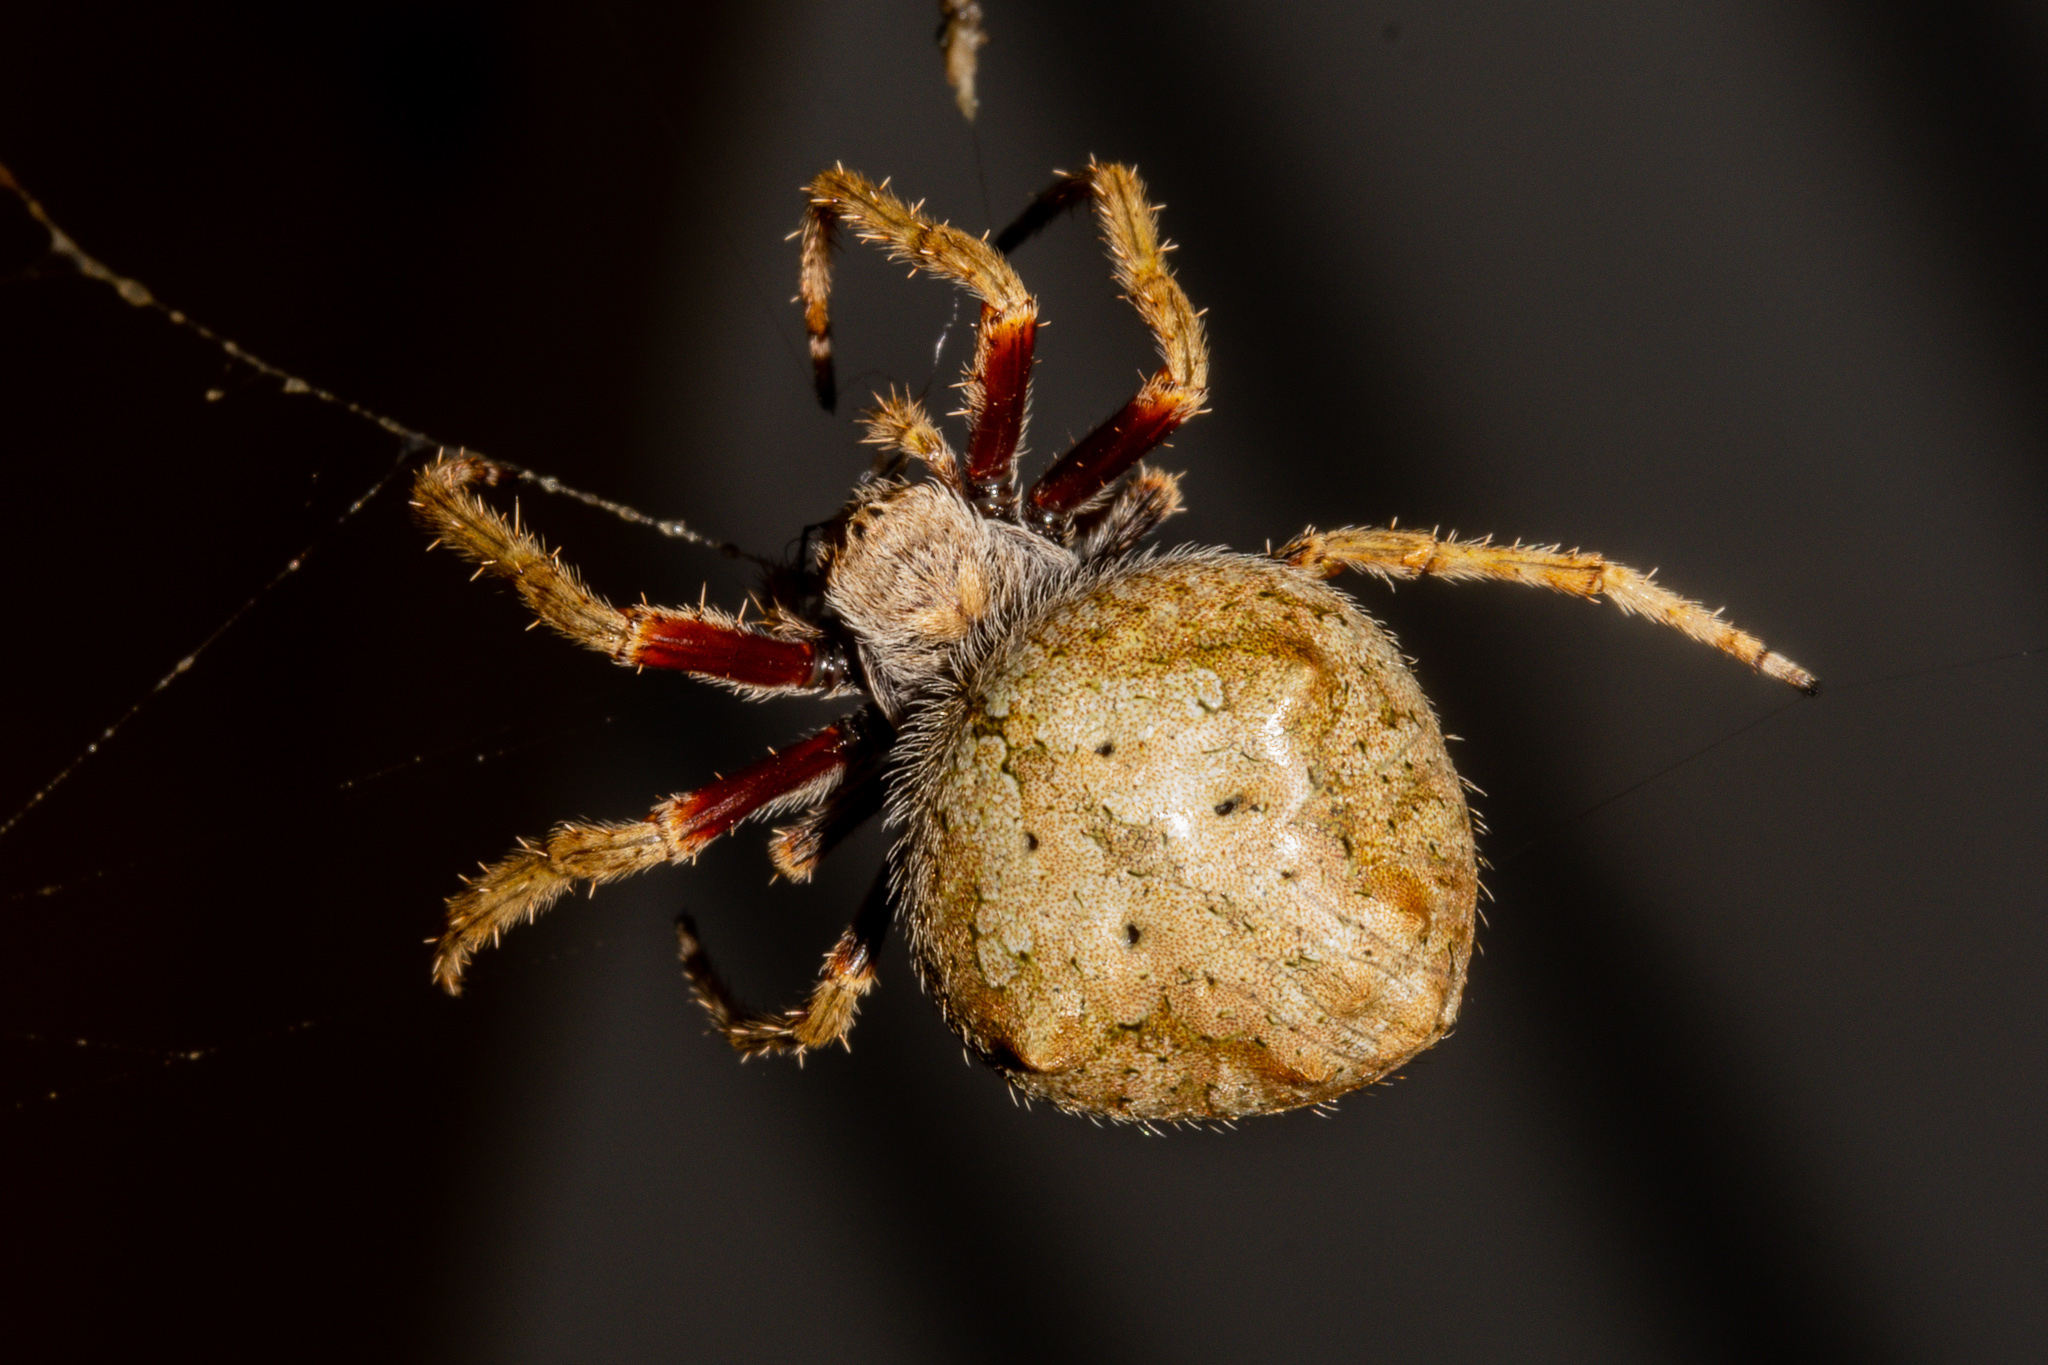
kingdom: Animalia
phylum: Arthropoda
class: Arachnida
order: Araneae
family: Araneidae
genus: Eriophora
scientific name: Eriophora pustulosa
